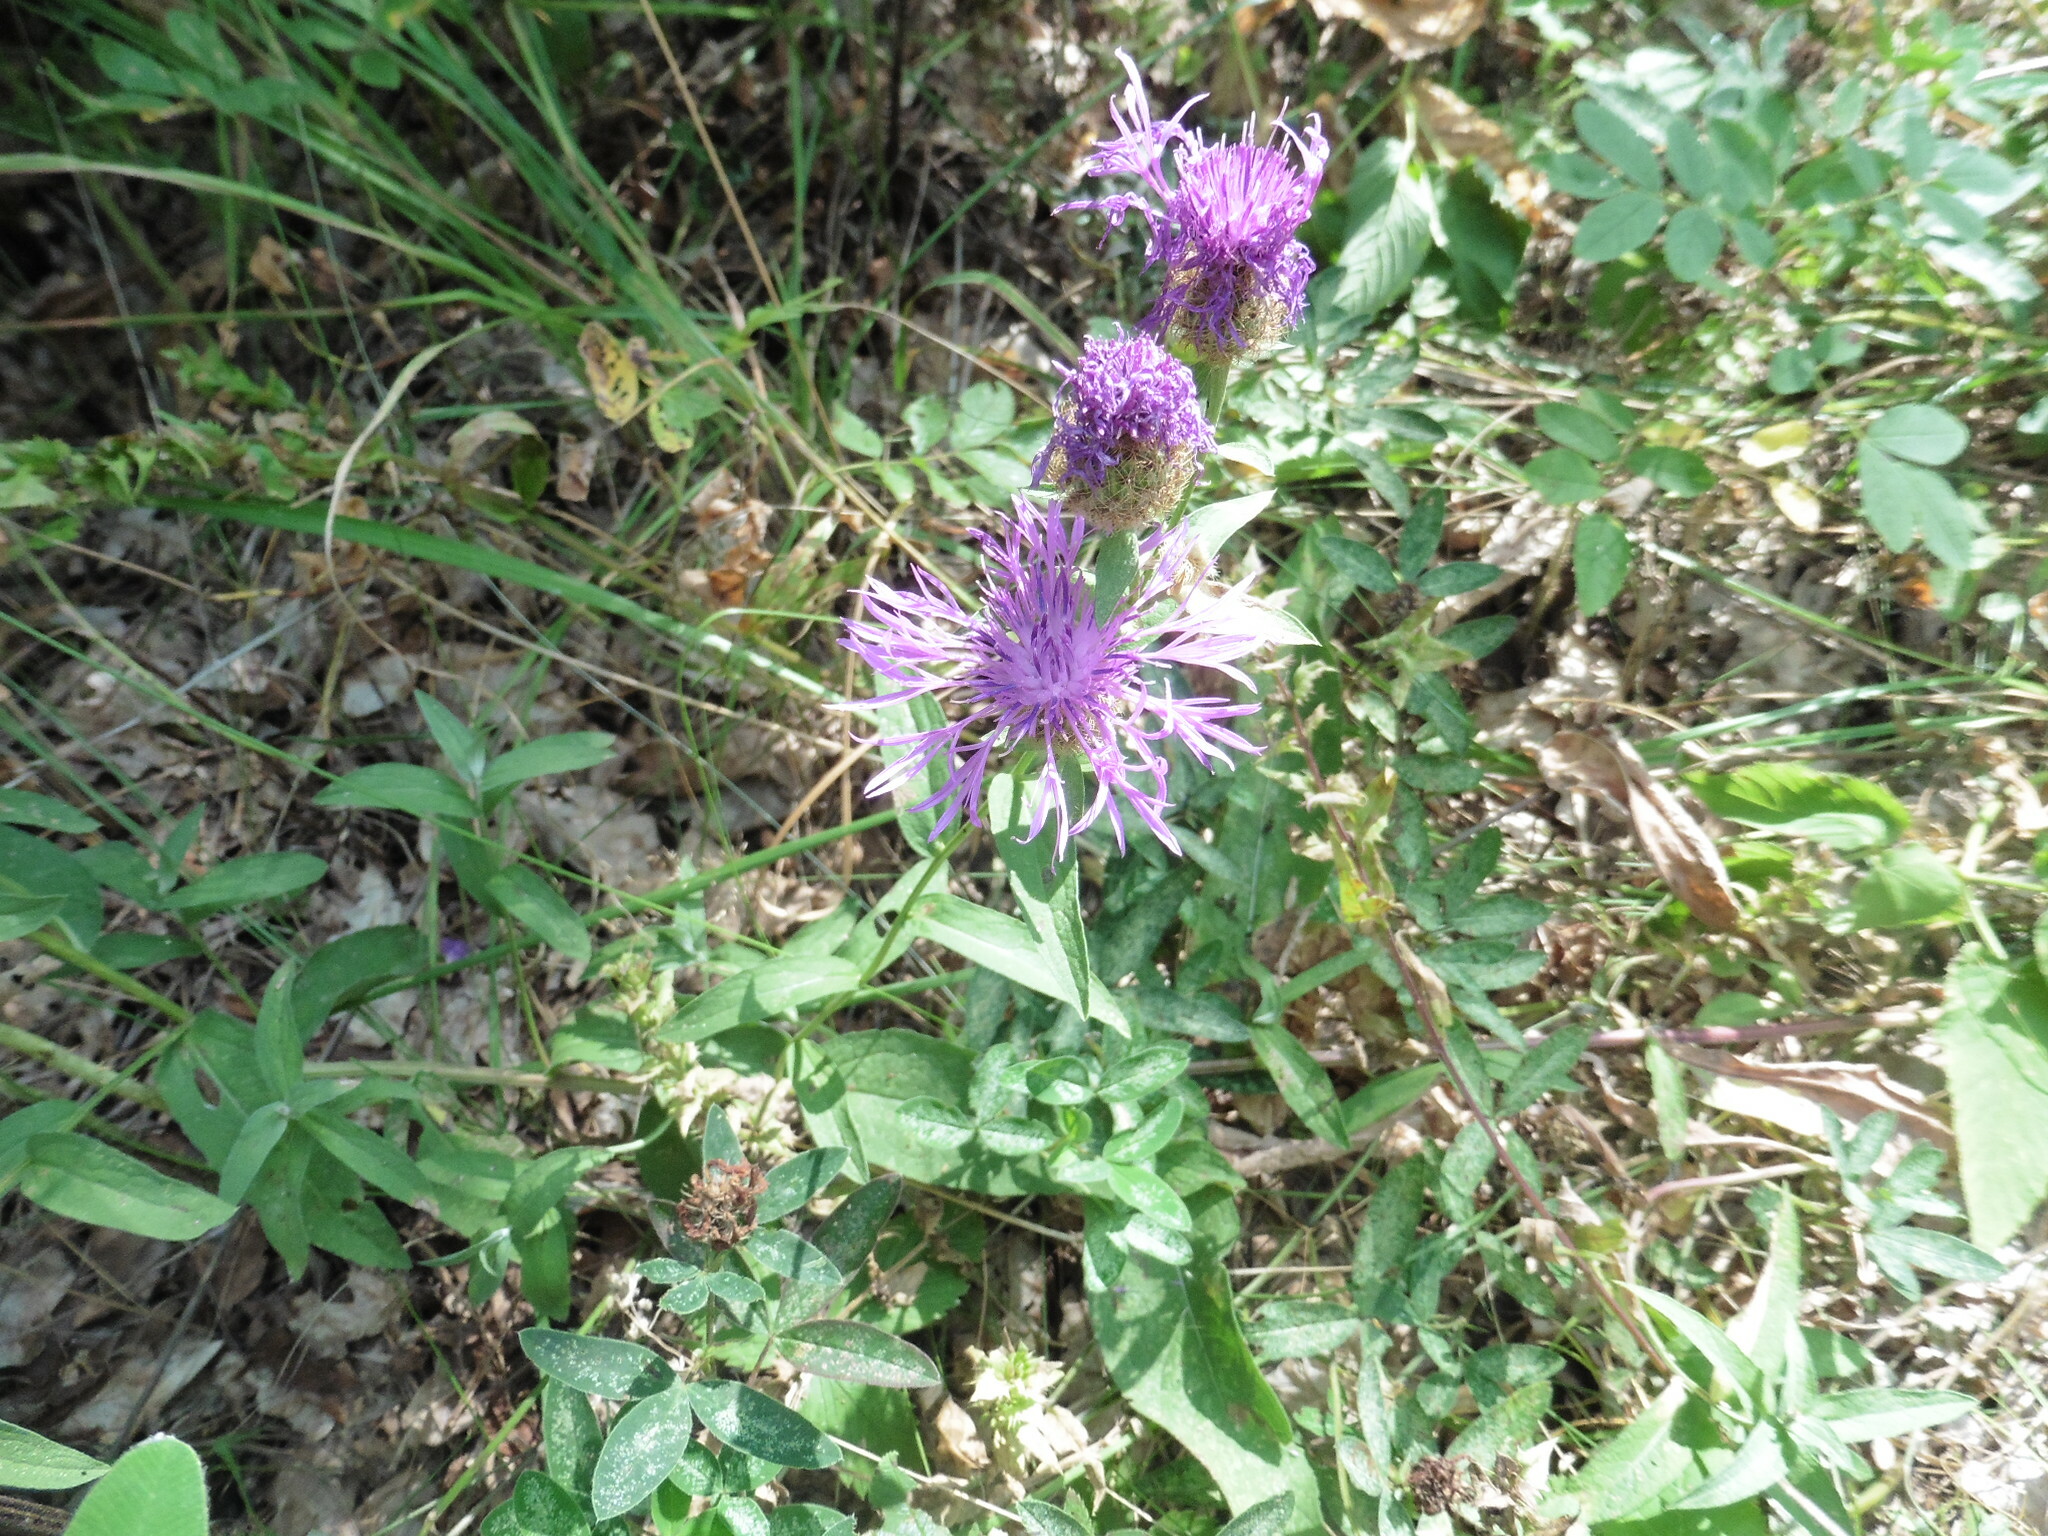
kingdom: Plantae
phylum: Tracheophyta
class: Magnoliopsida
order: Asterales
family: Asteraceae
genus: Centaurea
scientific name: Centaurea phrygia
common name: Wig knapweed
